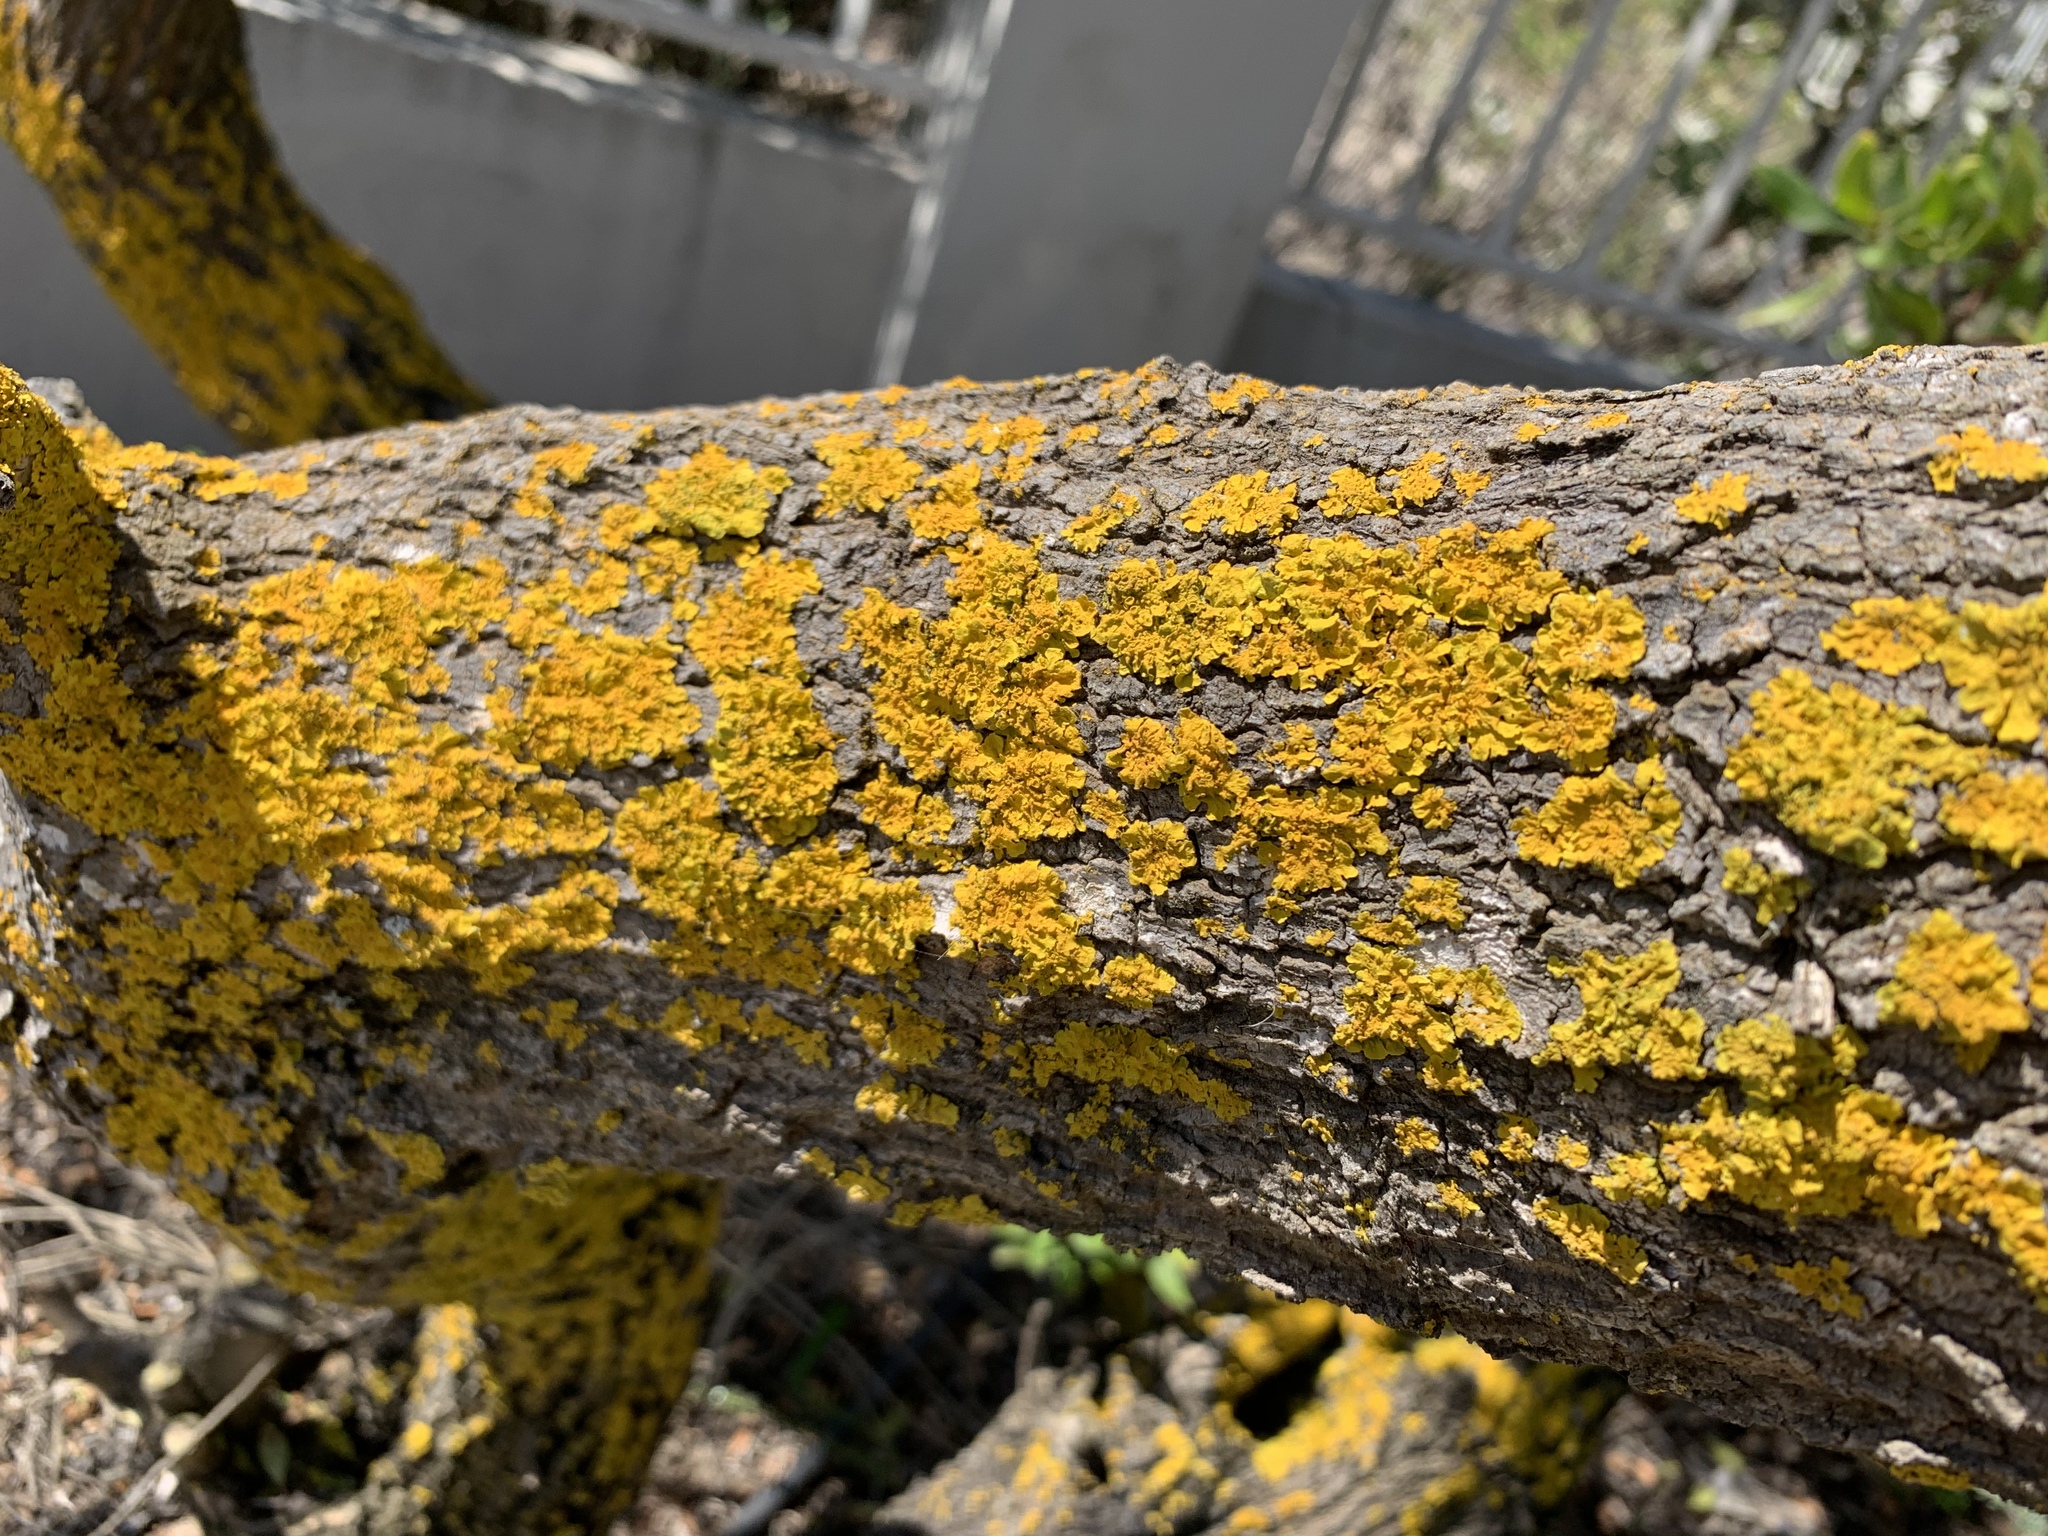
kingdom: Fungi
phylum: Ascomycota
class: Lecanoromycetes
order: Teloschistales
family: Teloschistaceae
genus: Xanthoria
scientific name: Xanthoria parietina
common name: Common orange lichen
